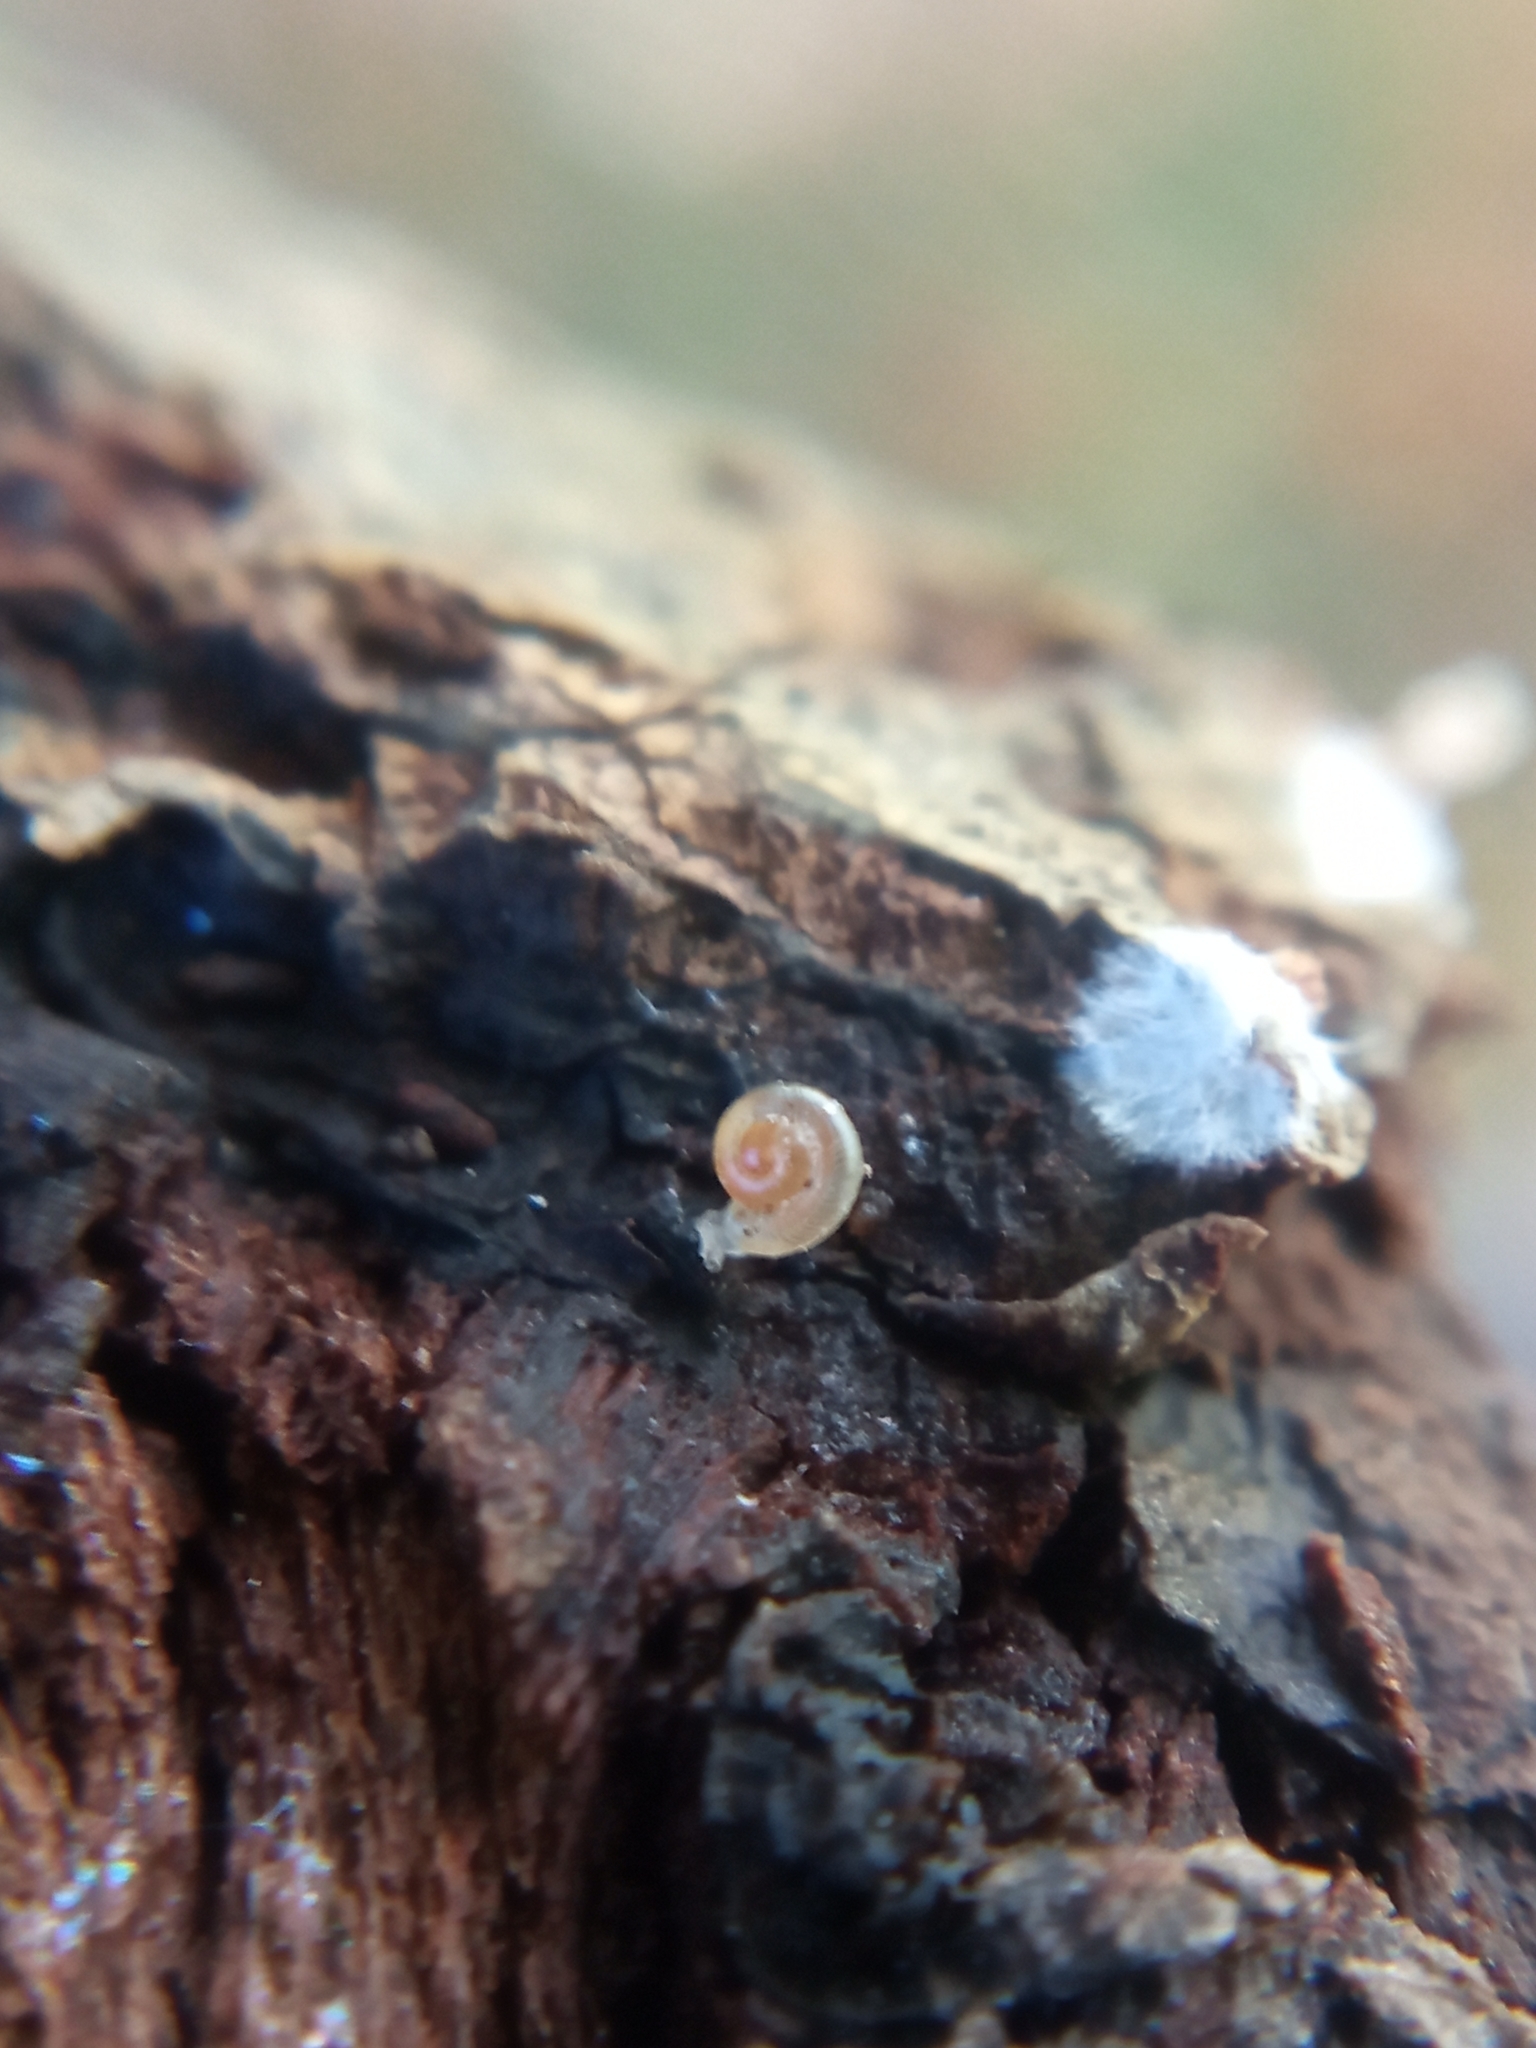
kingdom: Animalia
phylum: Mollusca
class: Gastropoda
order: Stylommatophora
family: Discidae
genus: Discus
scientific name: Discus rotundatus
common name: Rounded snail
